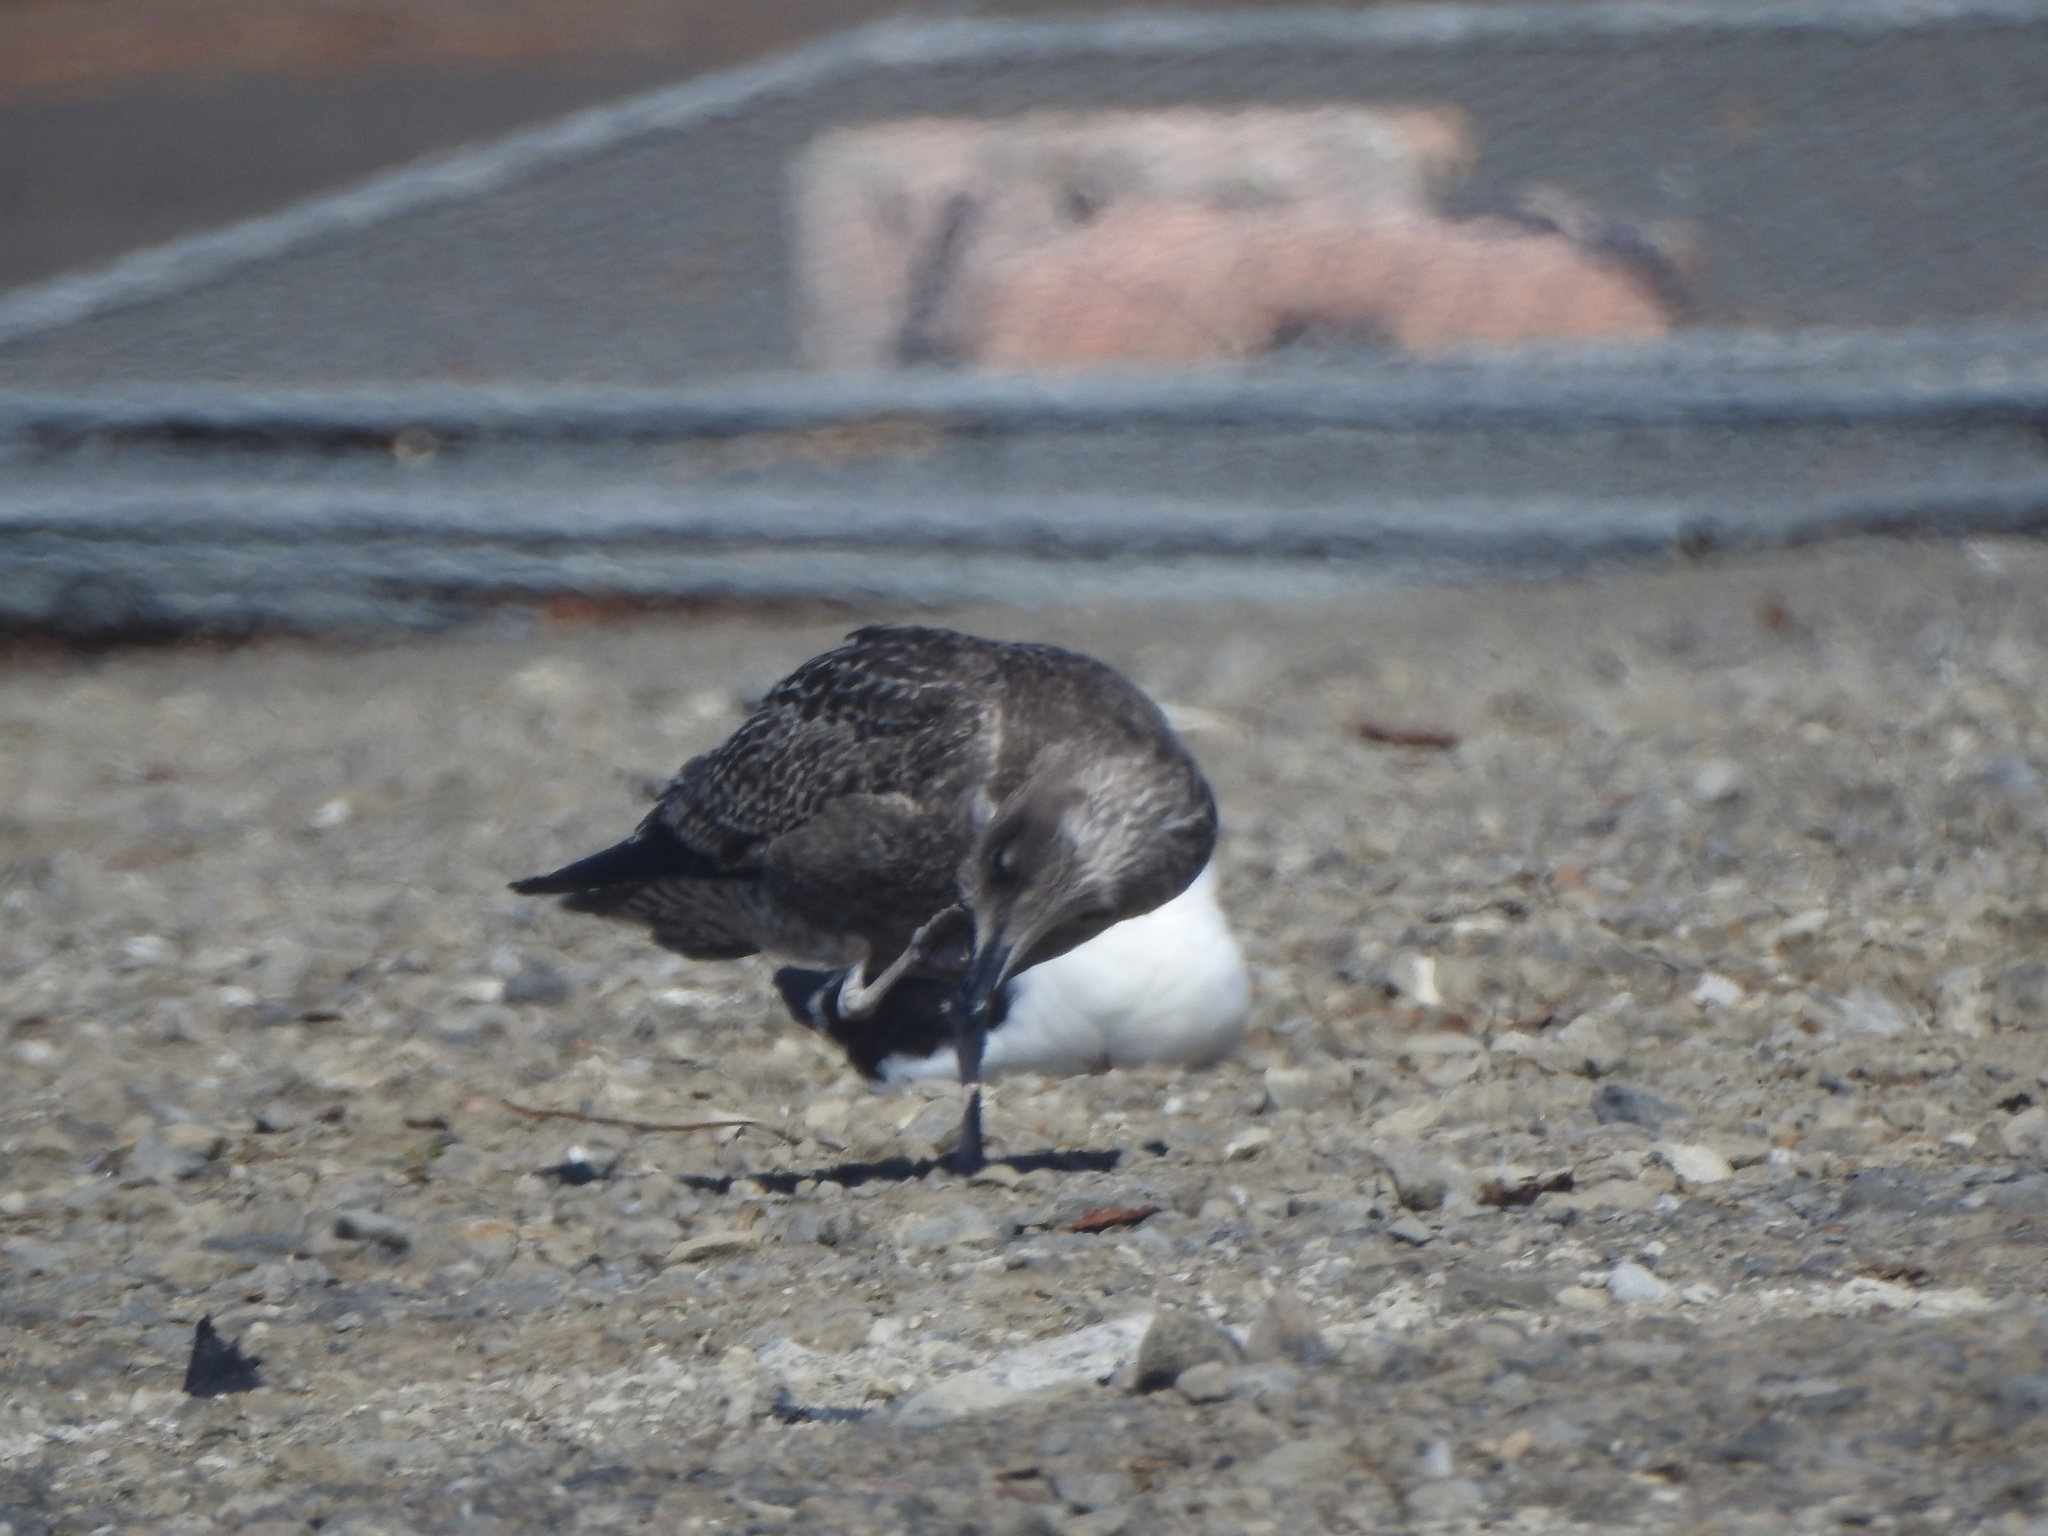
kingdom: Animalia
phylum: Chordata
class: Aves
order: Charadriiformes
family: Laridae
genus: Larus
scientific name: Larus dominicanus
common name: Kelp gull
